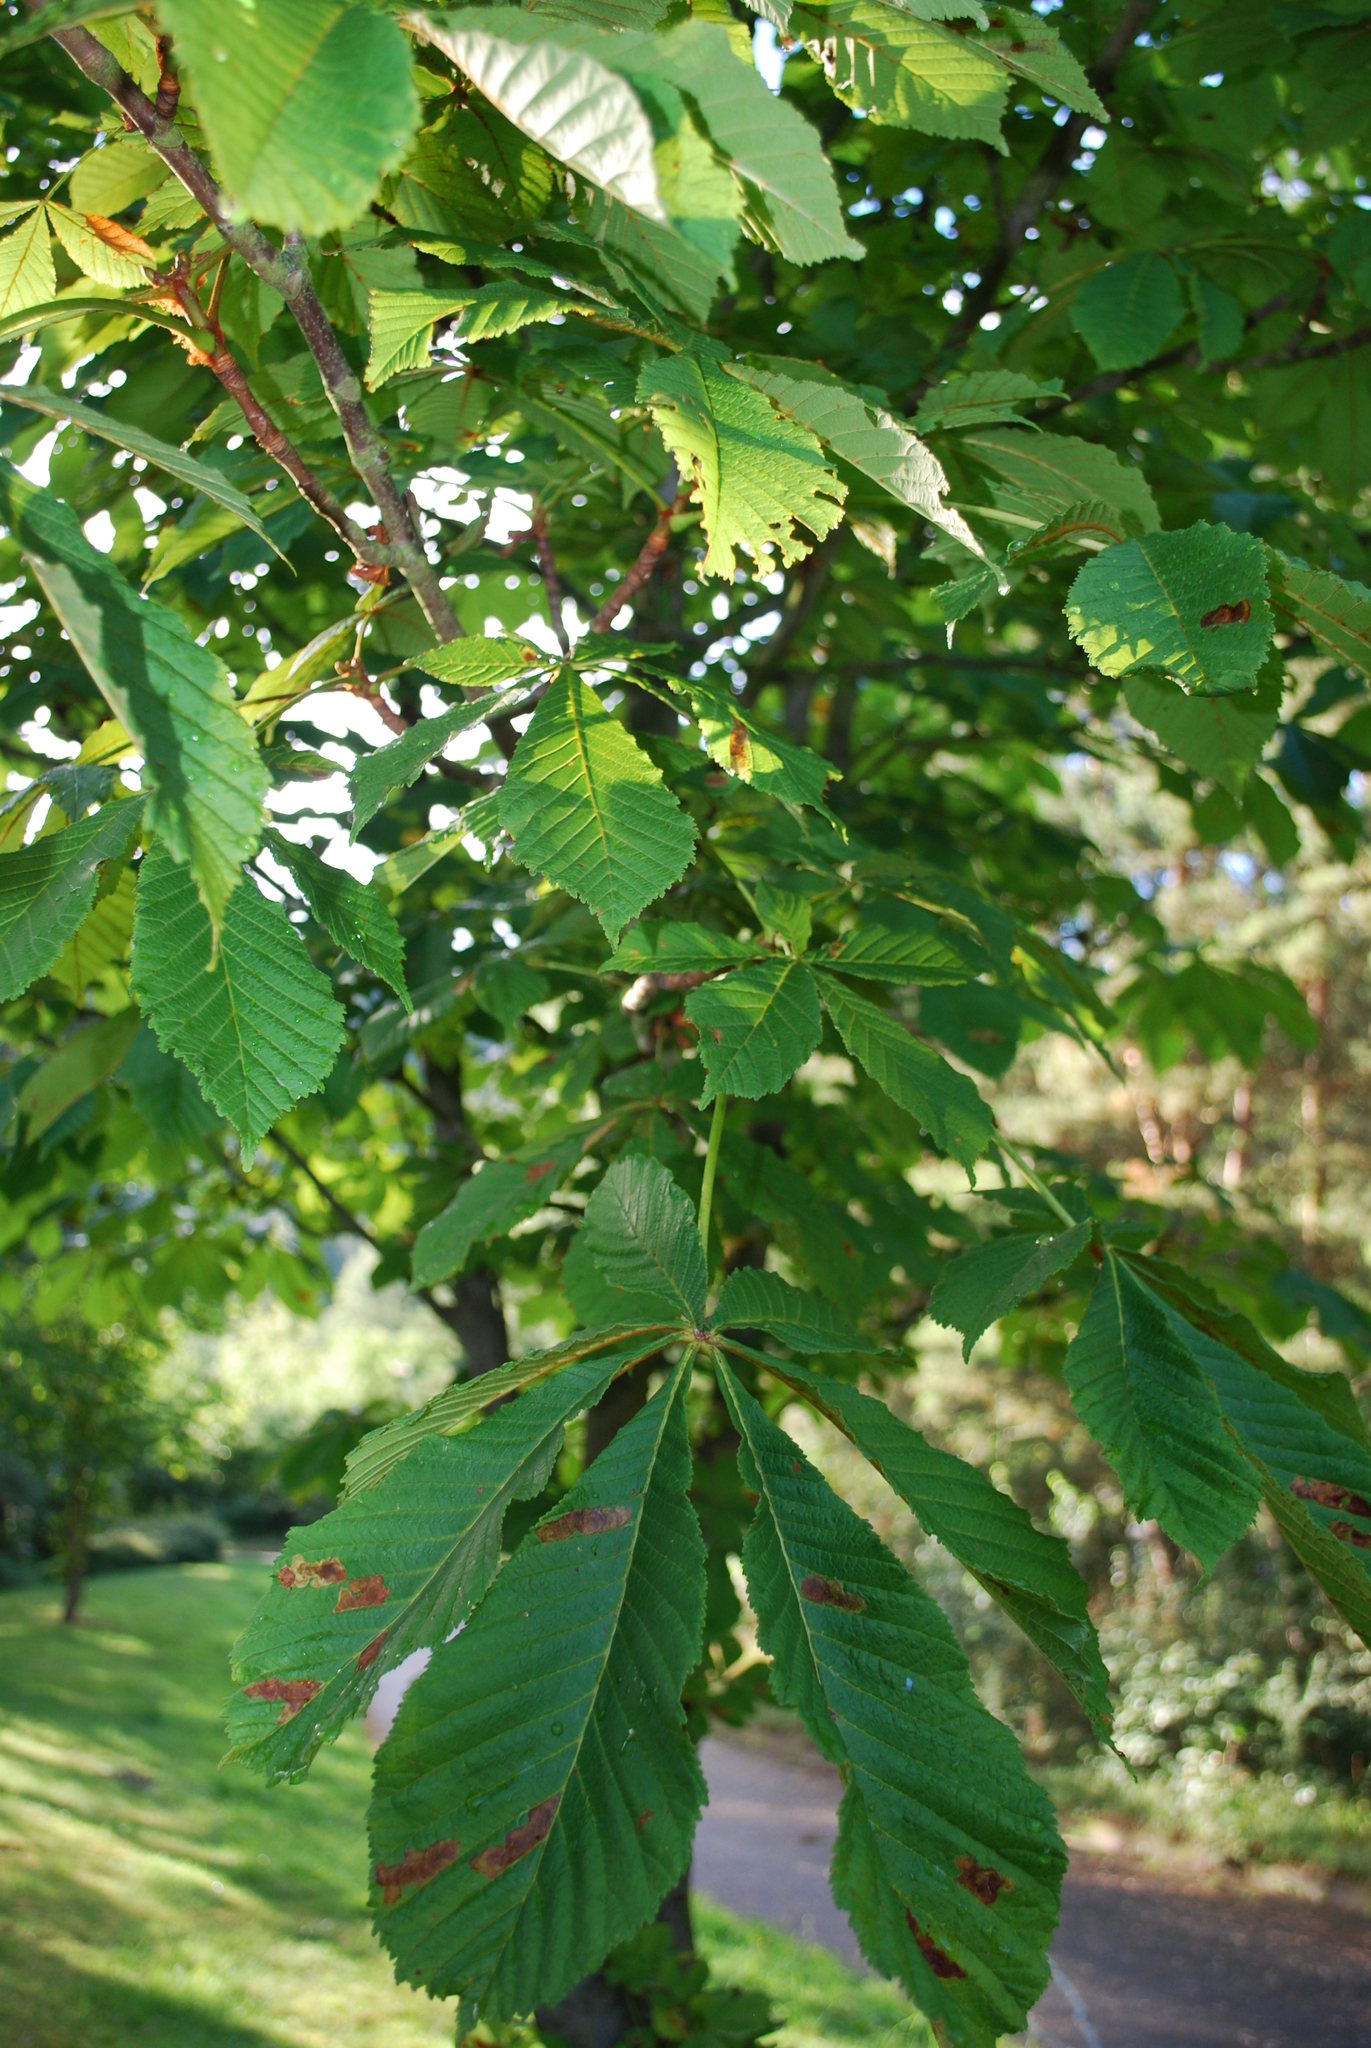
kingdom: Plantae
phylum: Tracheophyta
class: Magnoliopsida
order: Sapindales
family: Sapindaceae
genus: Aesculus
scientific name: Aesculus hippocastanum
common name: Horse-chestnut
